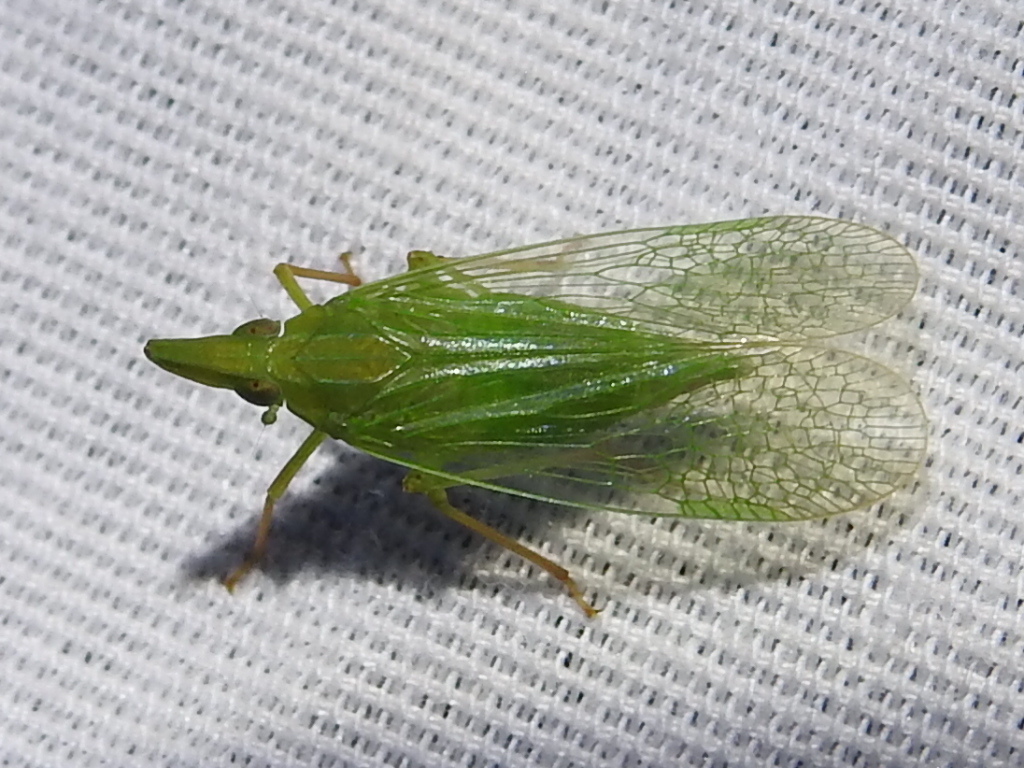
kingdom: Animalia
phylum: Arthropoda
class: Insecta
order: Hemiptera
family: Dictyopharidae
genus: Rhynchomitra
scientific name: Rhynchomitra microrhina
